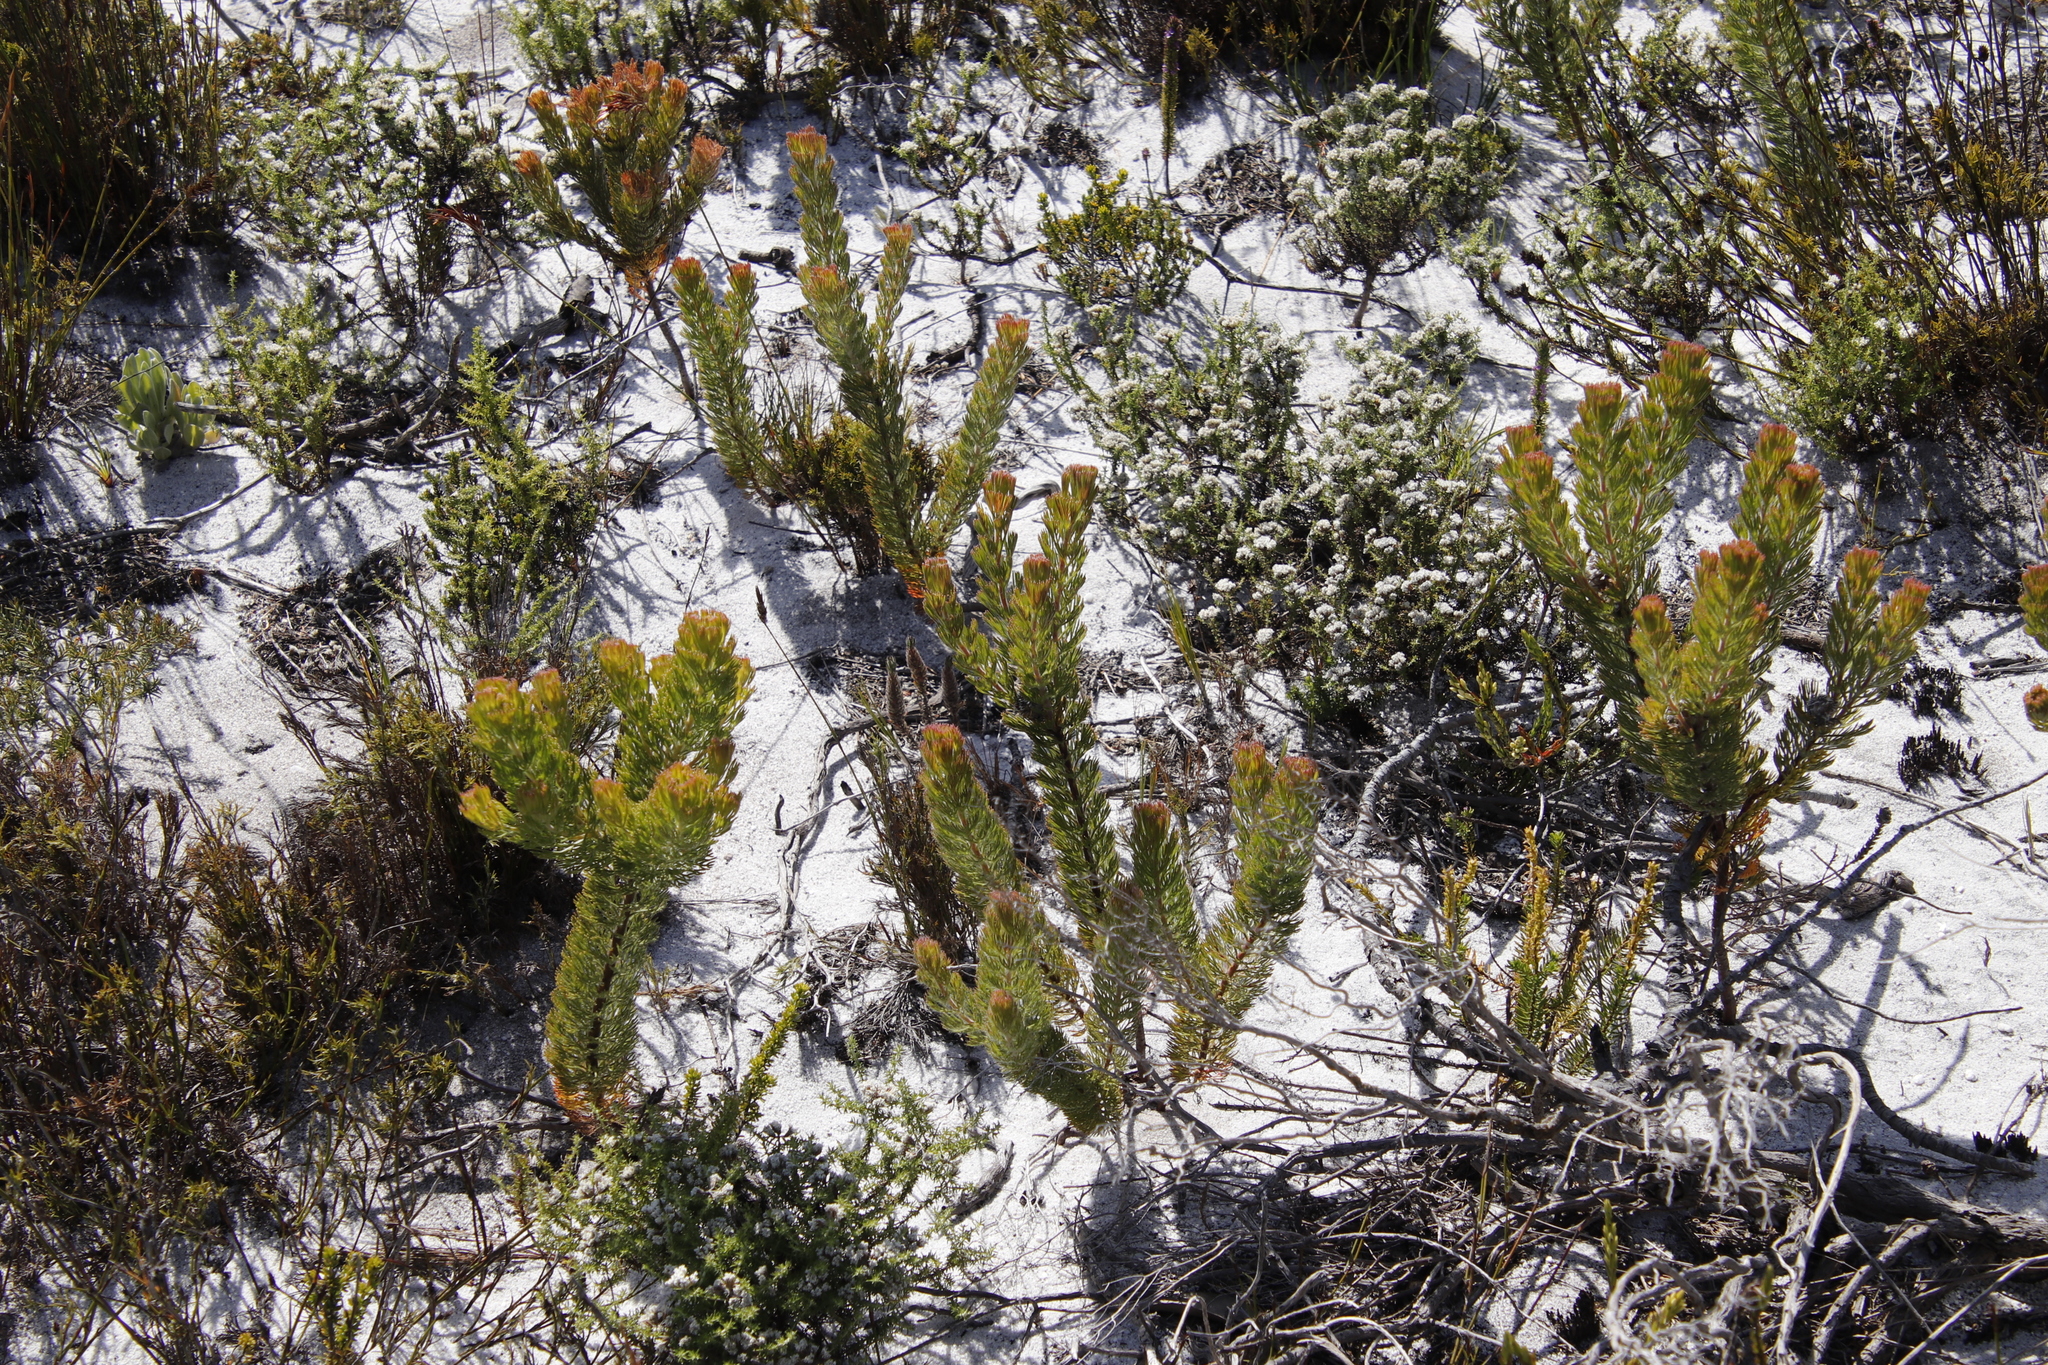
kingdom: Plantae
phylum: Tracheophyta
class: Magnoliopsida
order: Proteales
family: Proteaceae
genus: Serruria
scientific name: Serruria villosa
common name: Golden spiderhead
